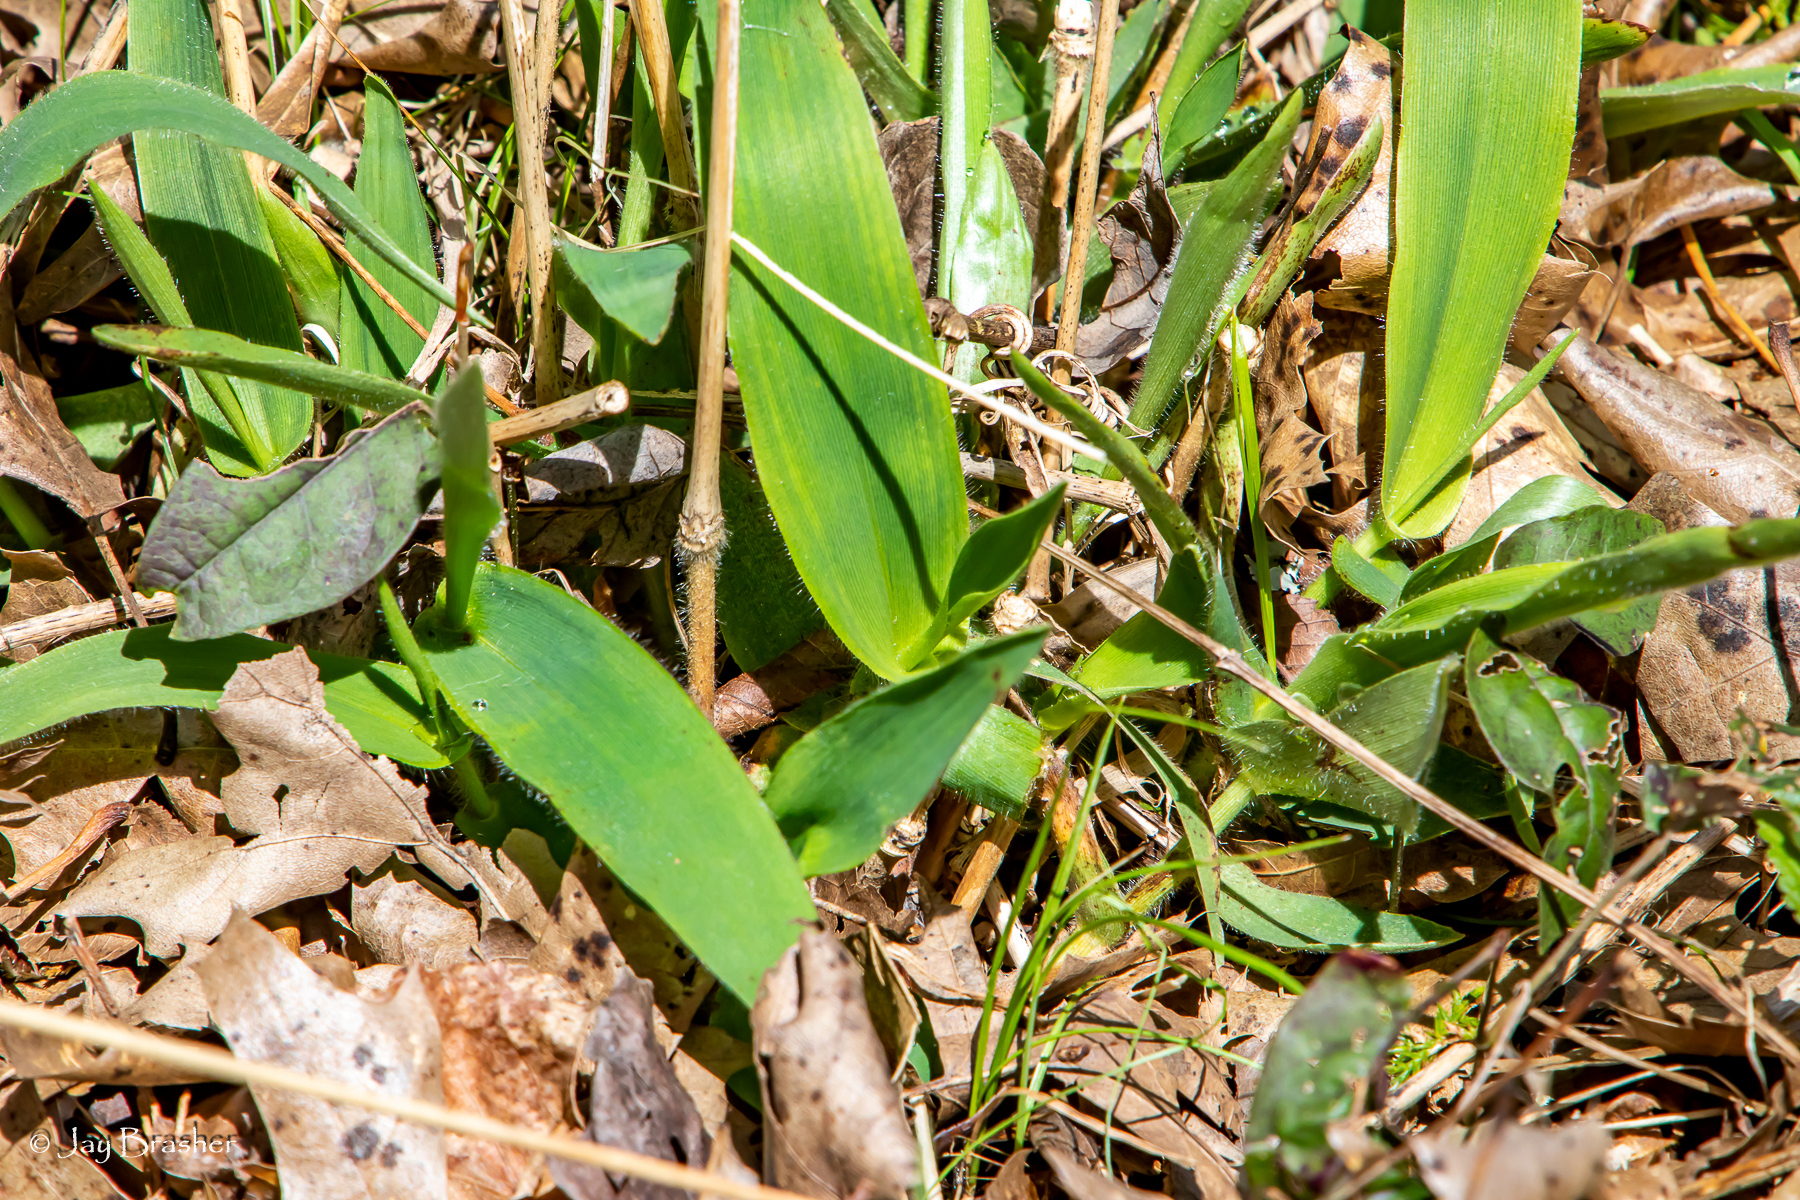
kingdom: Plantae
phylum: Tracheophyta
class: Liliopsida
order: Poales
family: Poaceae
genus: Dichanthelium
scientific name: Dichanthelium clandestinum
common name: Deer-tongue grass
